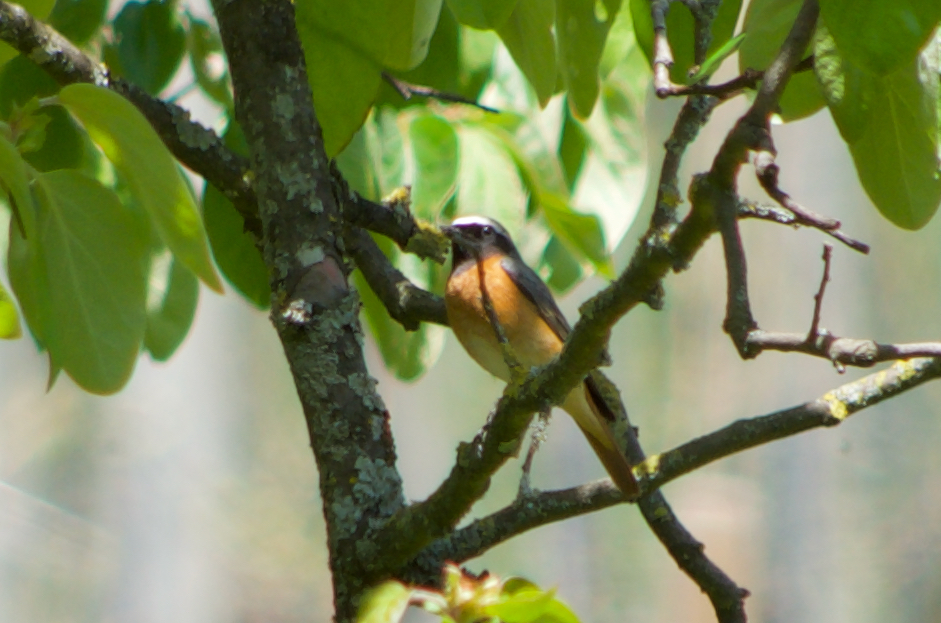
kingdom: Animalia
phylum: Chordata
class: Aves
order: Passeriformes
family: Muscicapidae
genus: Phoenicurus
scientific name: Phoenicurus phoenicurus
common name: Common redstart
